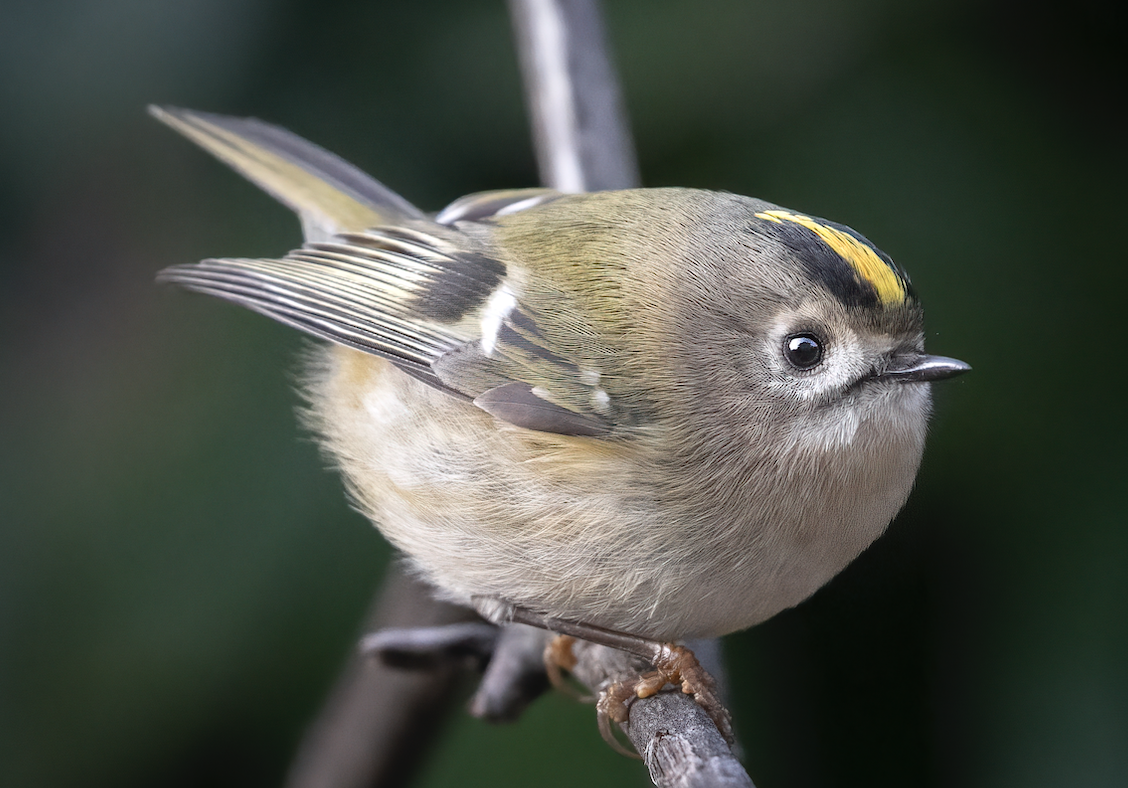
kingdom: Animalia
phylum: Chordata
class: Aves
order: Passeriformes
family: Regulidae
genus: Regulus
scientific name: Regulus regulus
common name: Goldcrest
